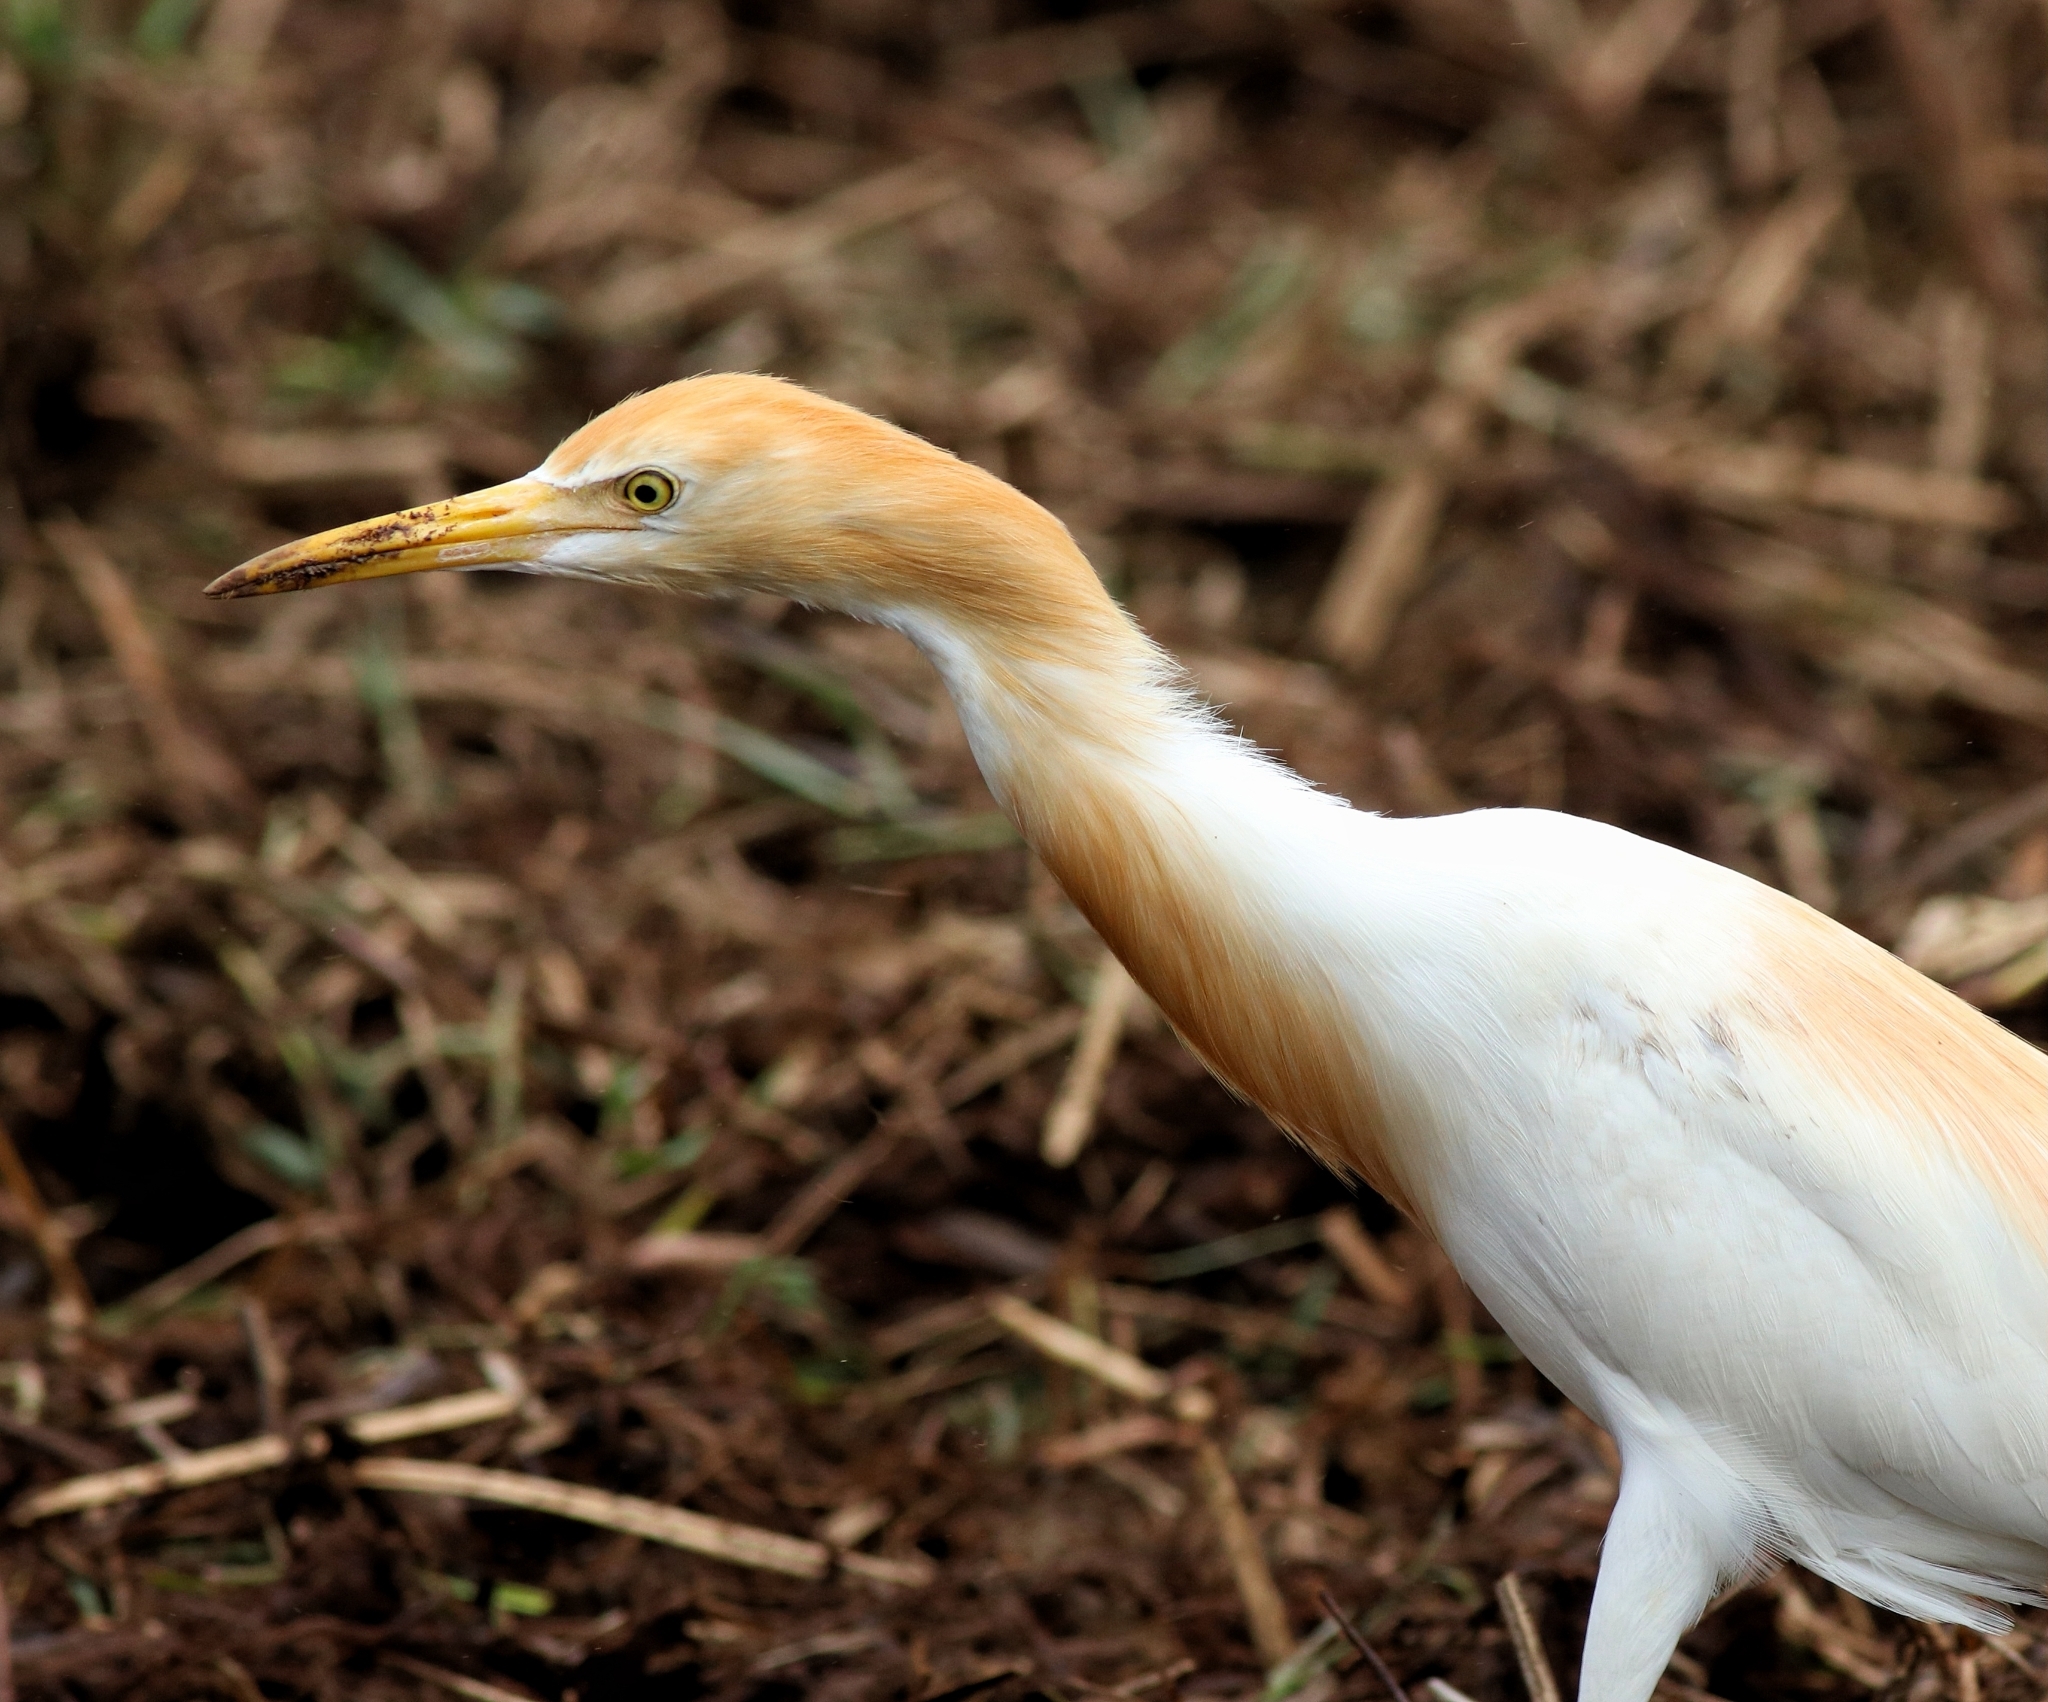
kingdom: Animalia
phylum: Chordata
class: Aves
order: Pelecaniformes
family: Ardeidae
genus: Bubulcus
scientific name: Bubulcus coromandus
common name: Eastern cattle egret
